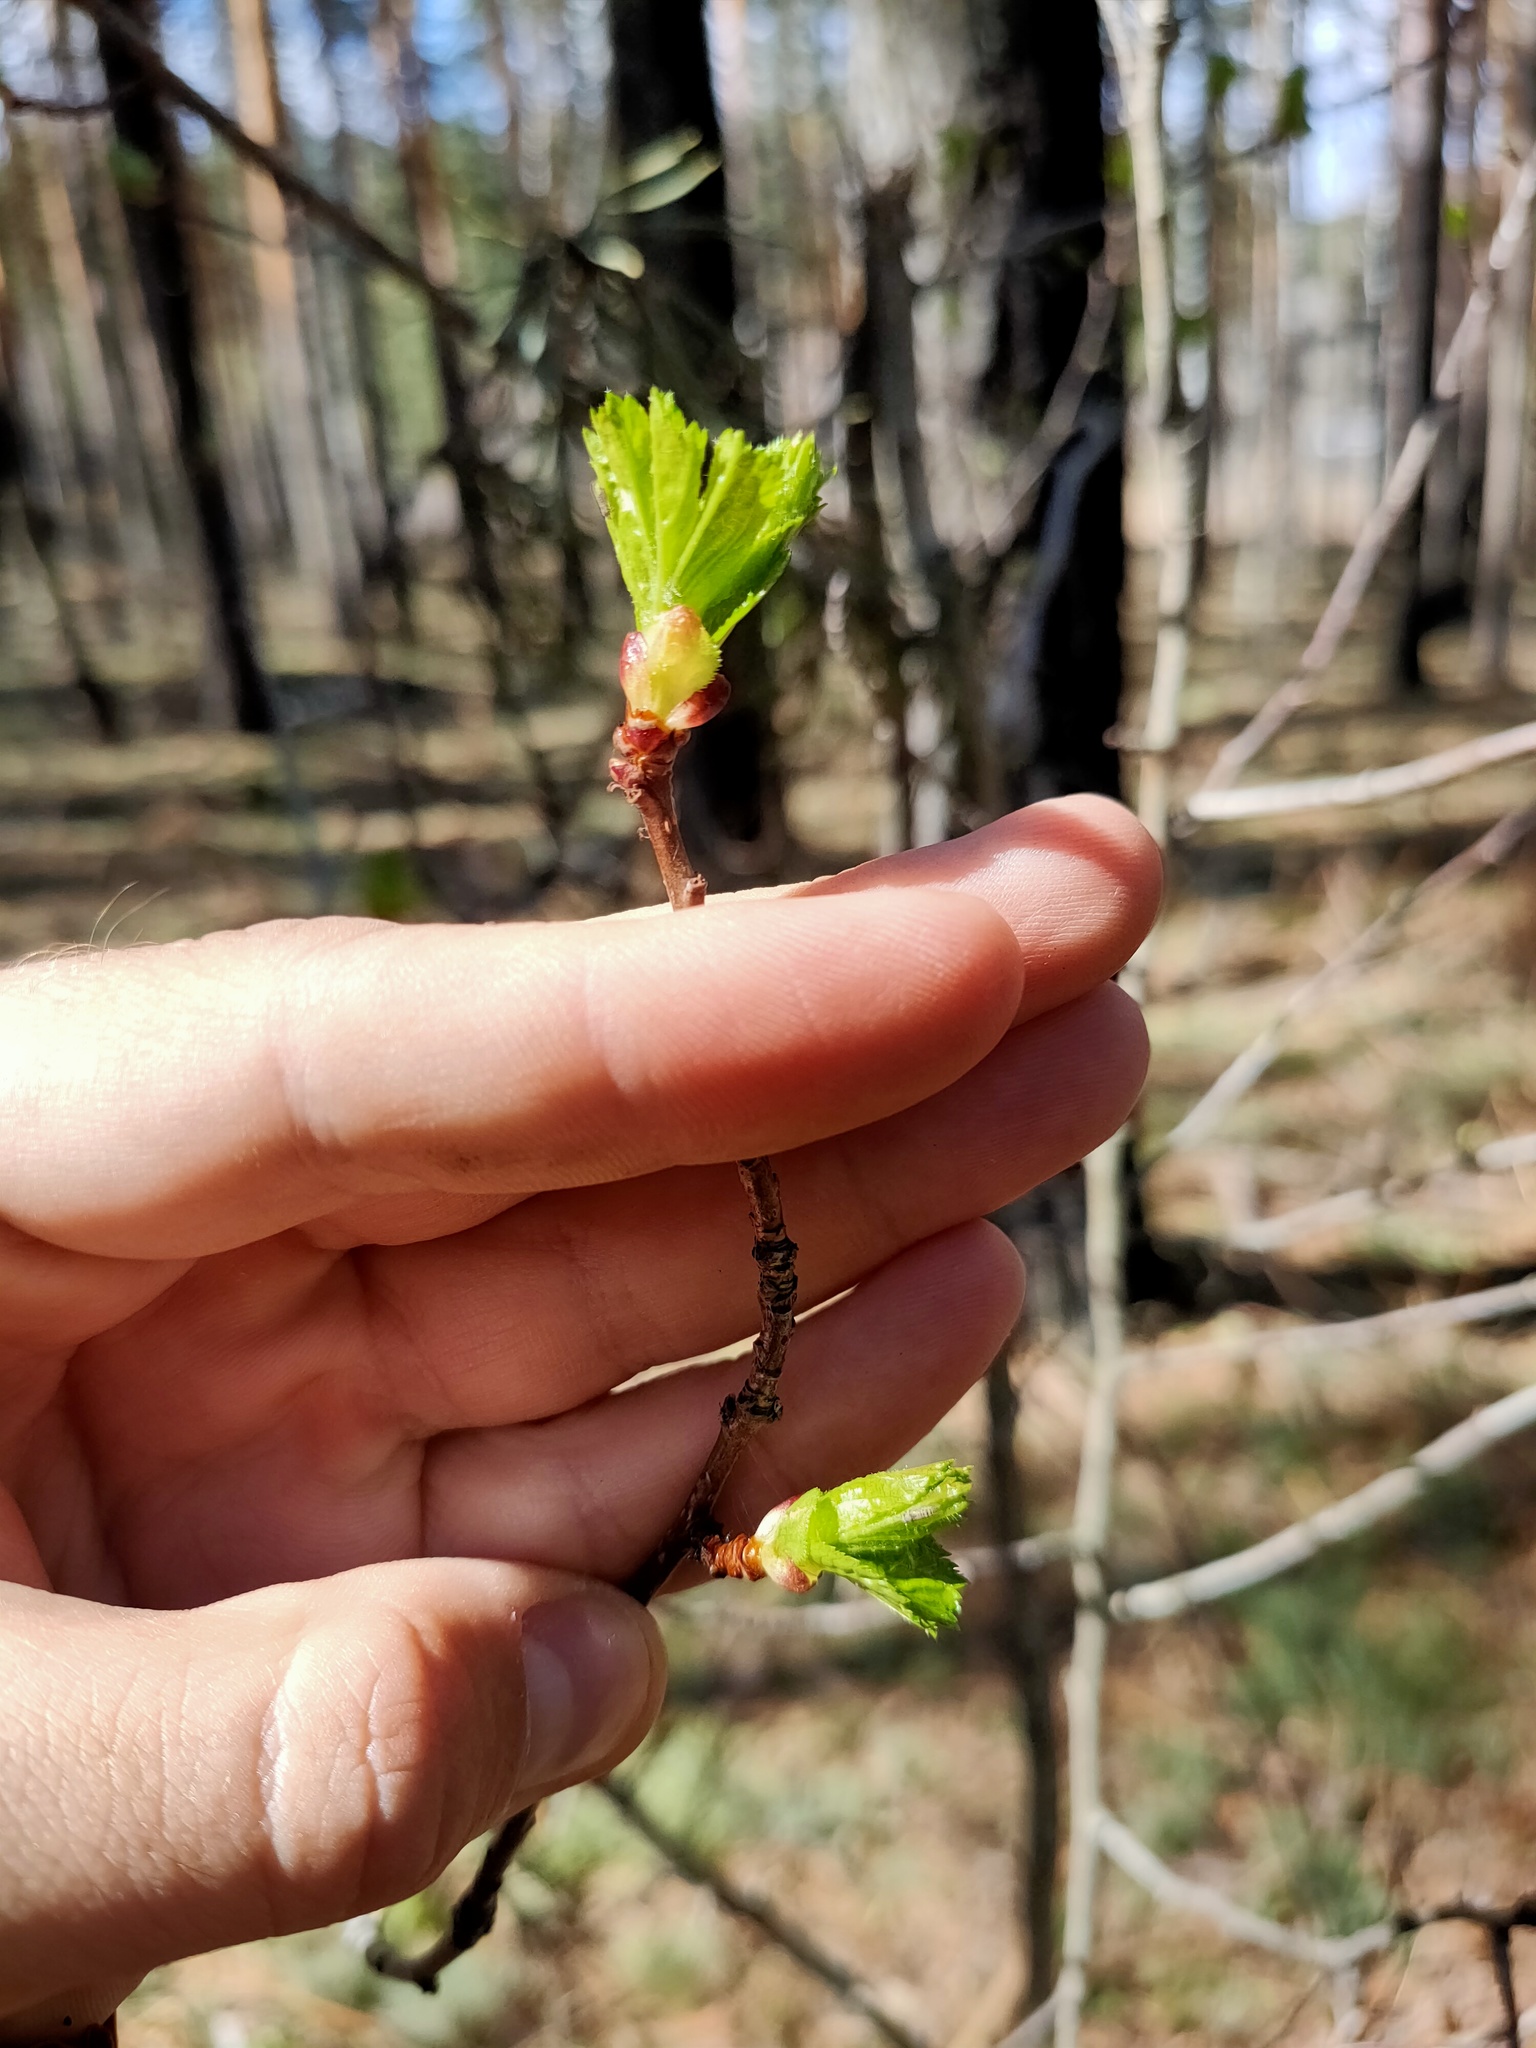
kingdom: Plantae
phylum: Tracheophyta
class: Magnoliopsida
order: Dipsacales
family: Viburnaceae
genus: Viburnum
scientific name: Viburnum opulus
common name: Guelder-rose
